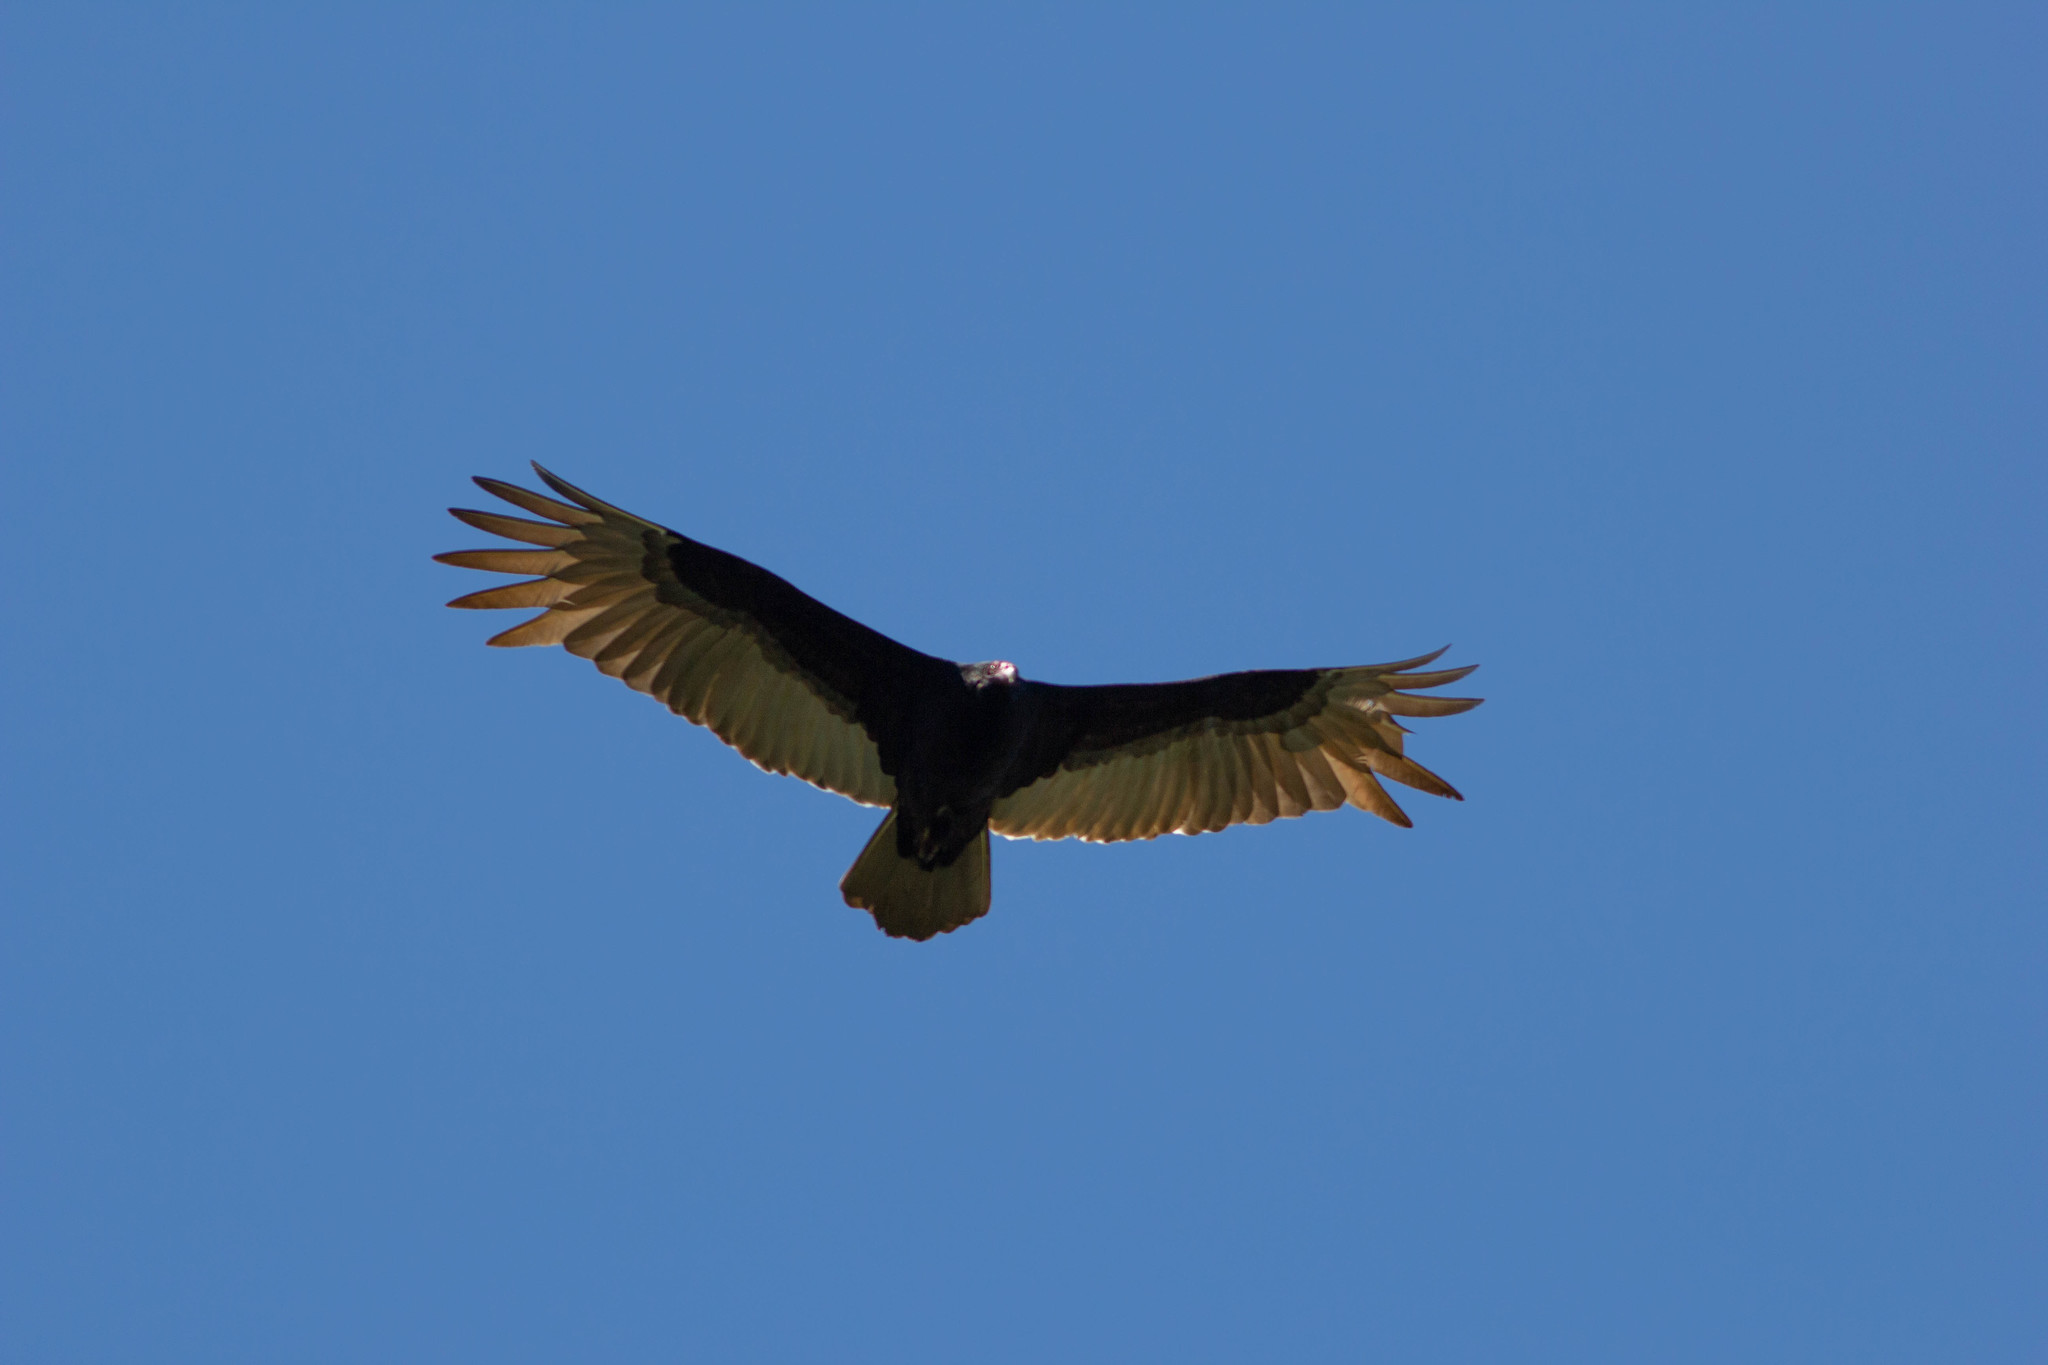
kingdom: Animalia
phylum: Chordata
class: Aves
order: Accipitriformes
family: Cathartidae
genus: Cathartes
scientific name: Cathartes aura
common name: Turkey vulture
